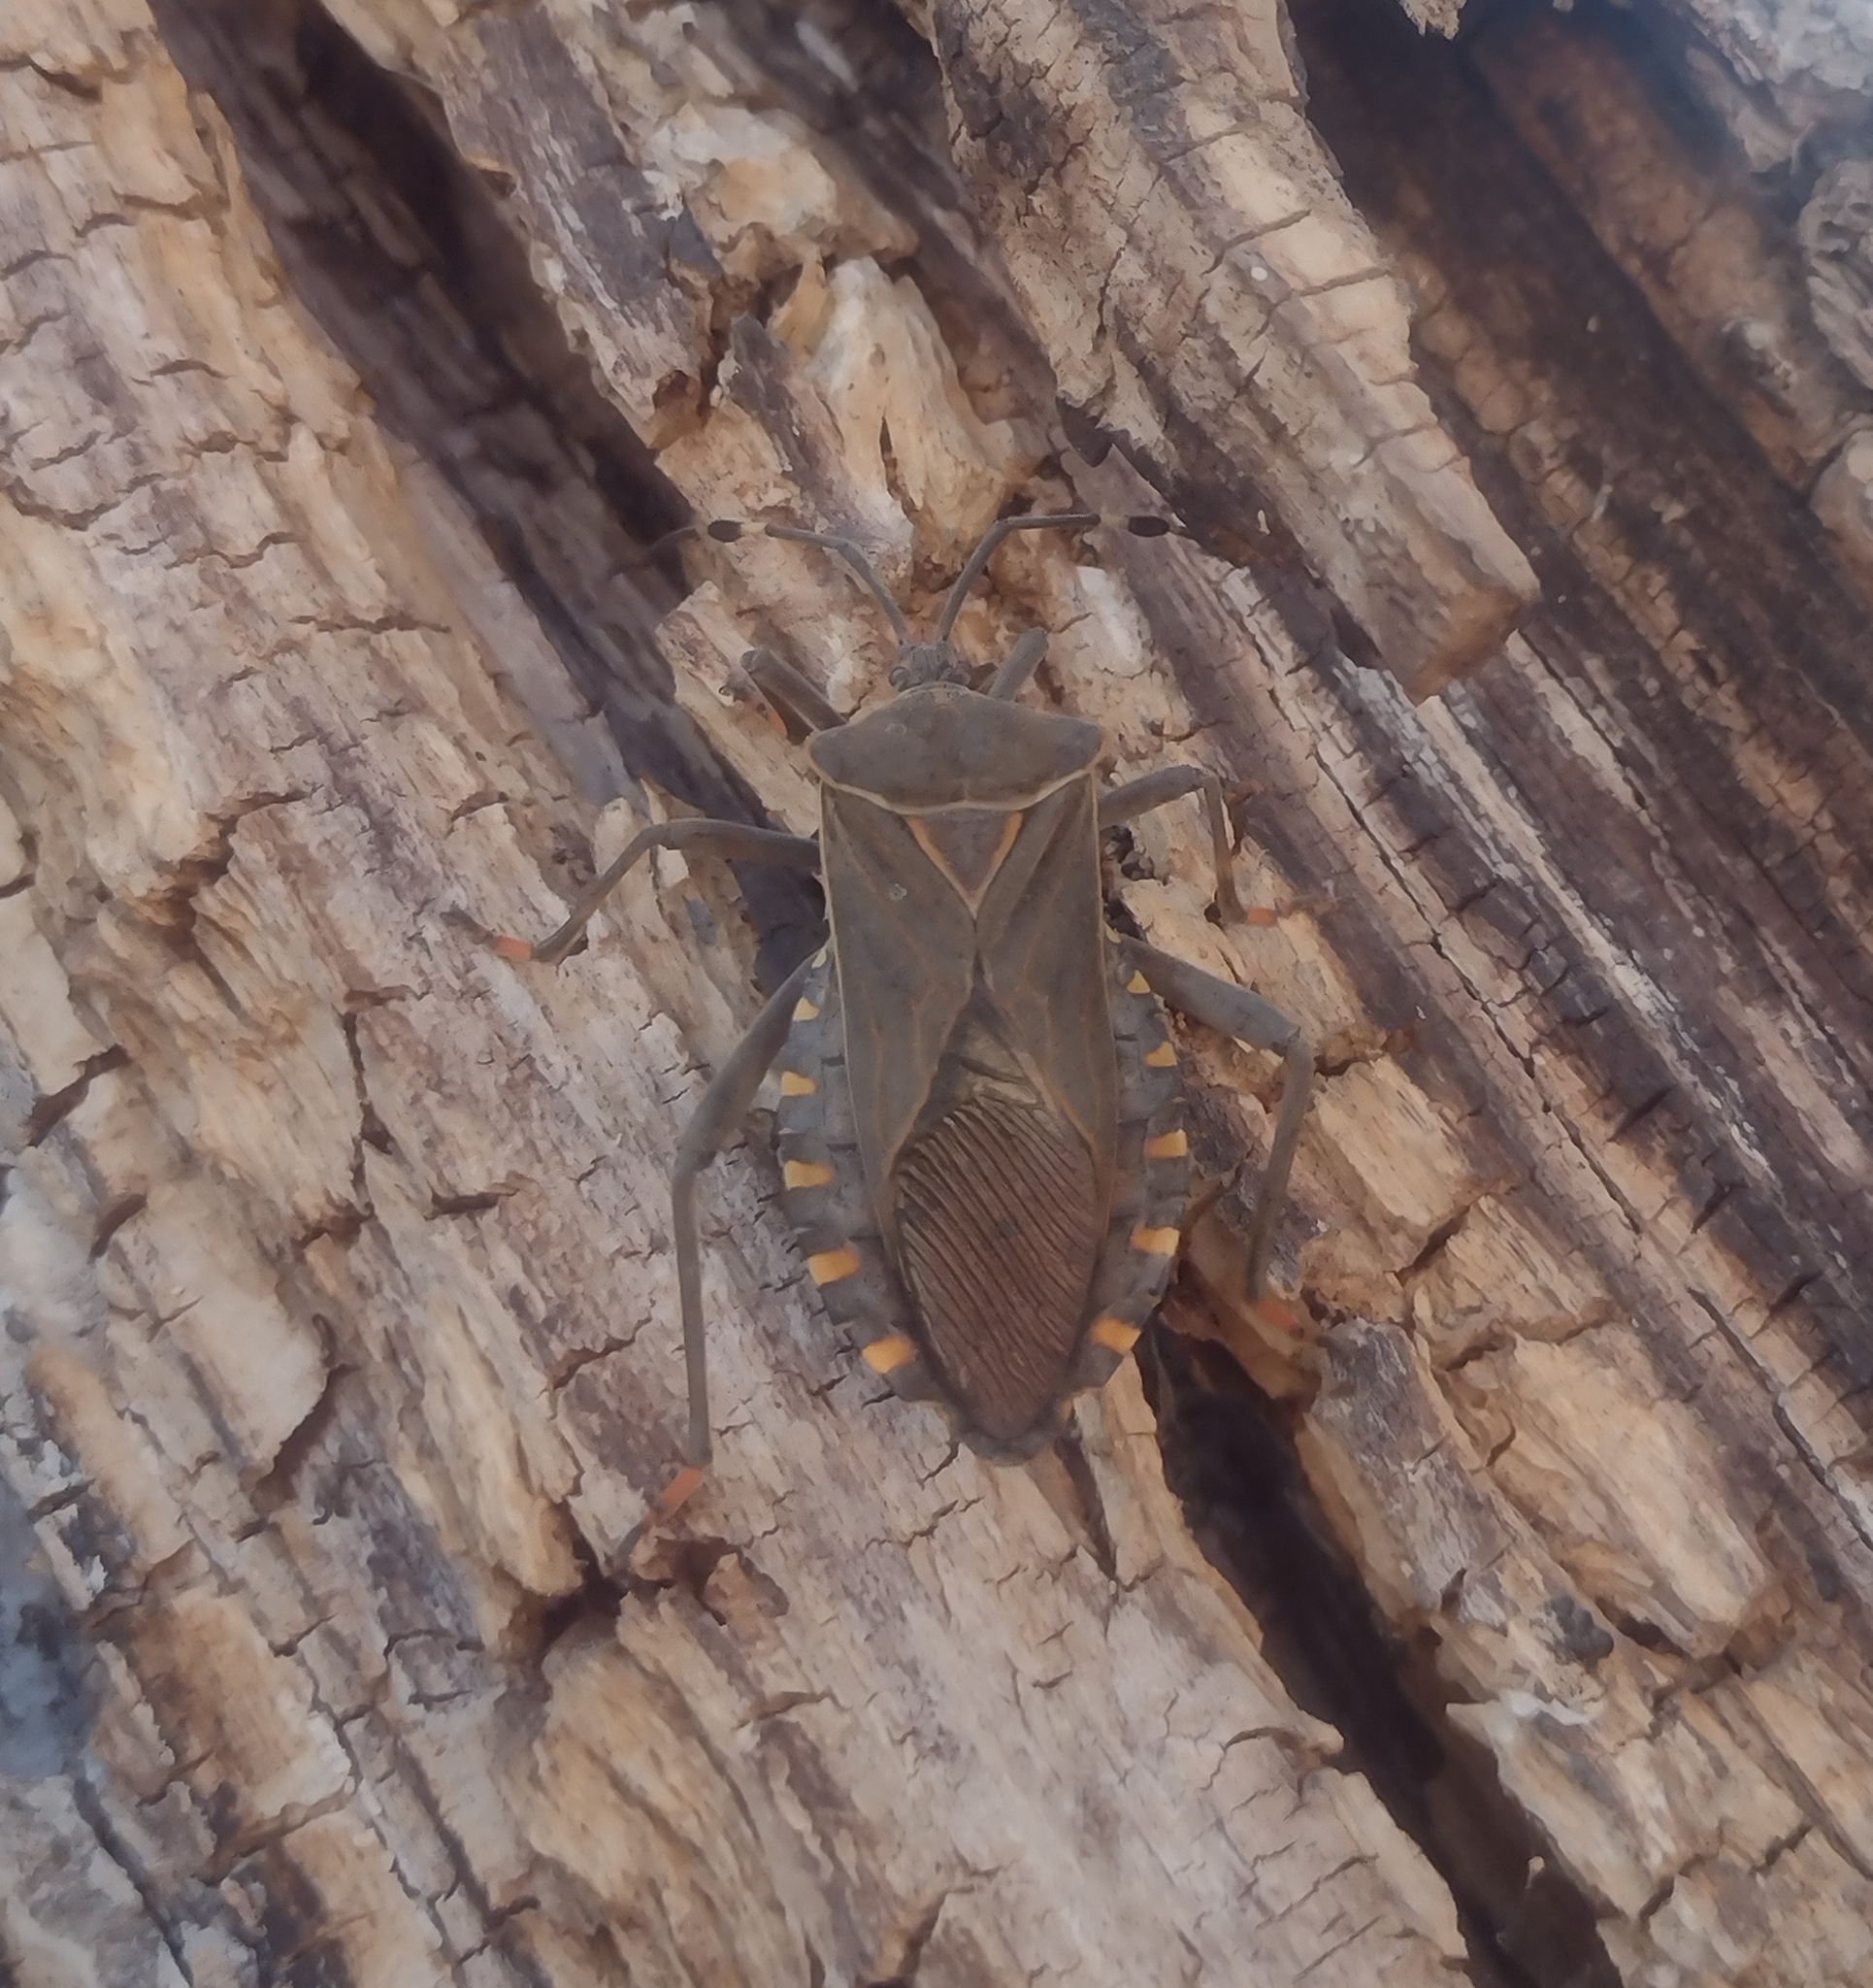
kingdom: Animalia
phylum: Arthropoda
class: Insecta
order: Hemiptera
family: Coreidae
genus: Pachylis
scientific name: Pachylis argentinus
